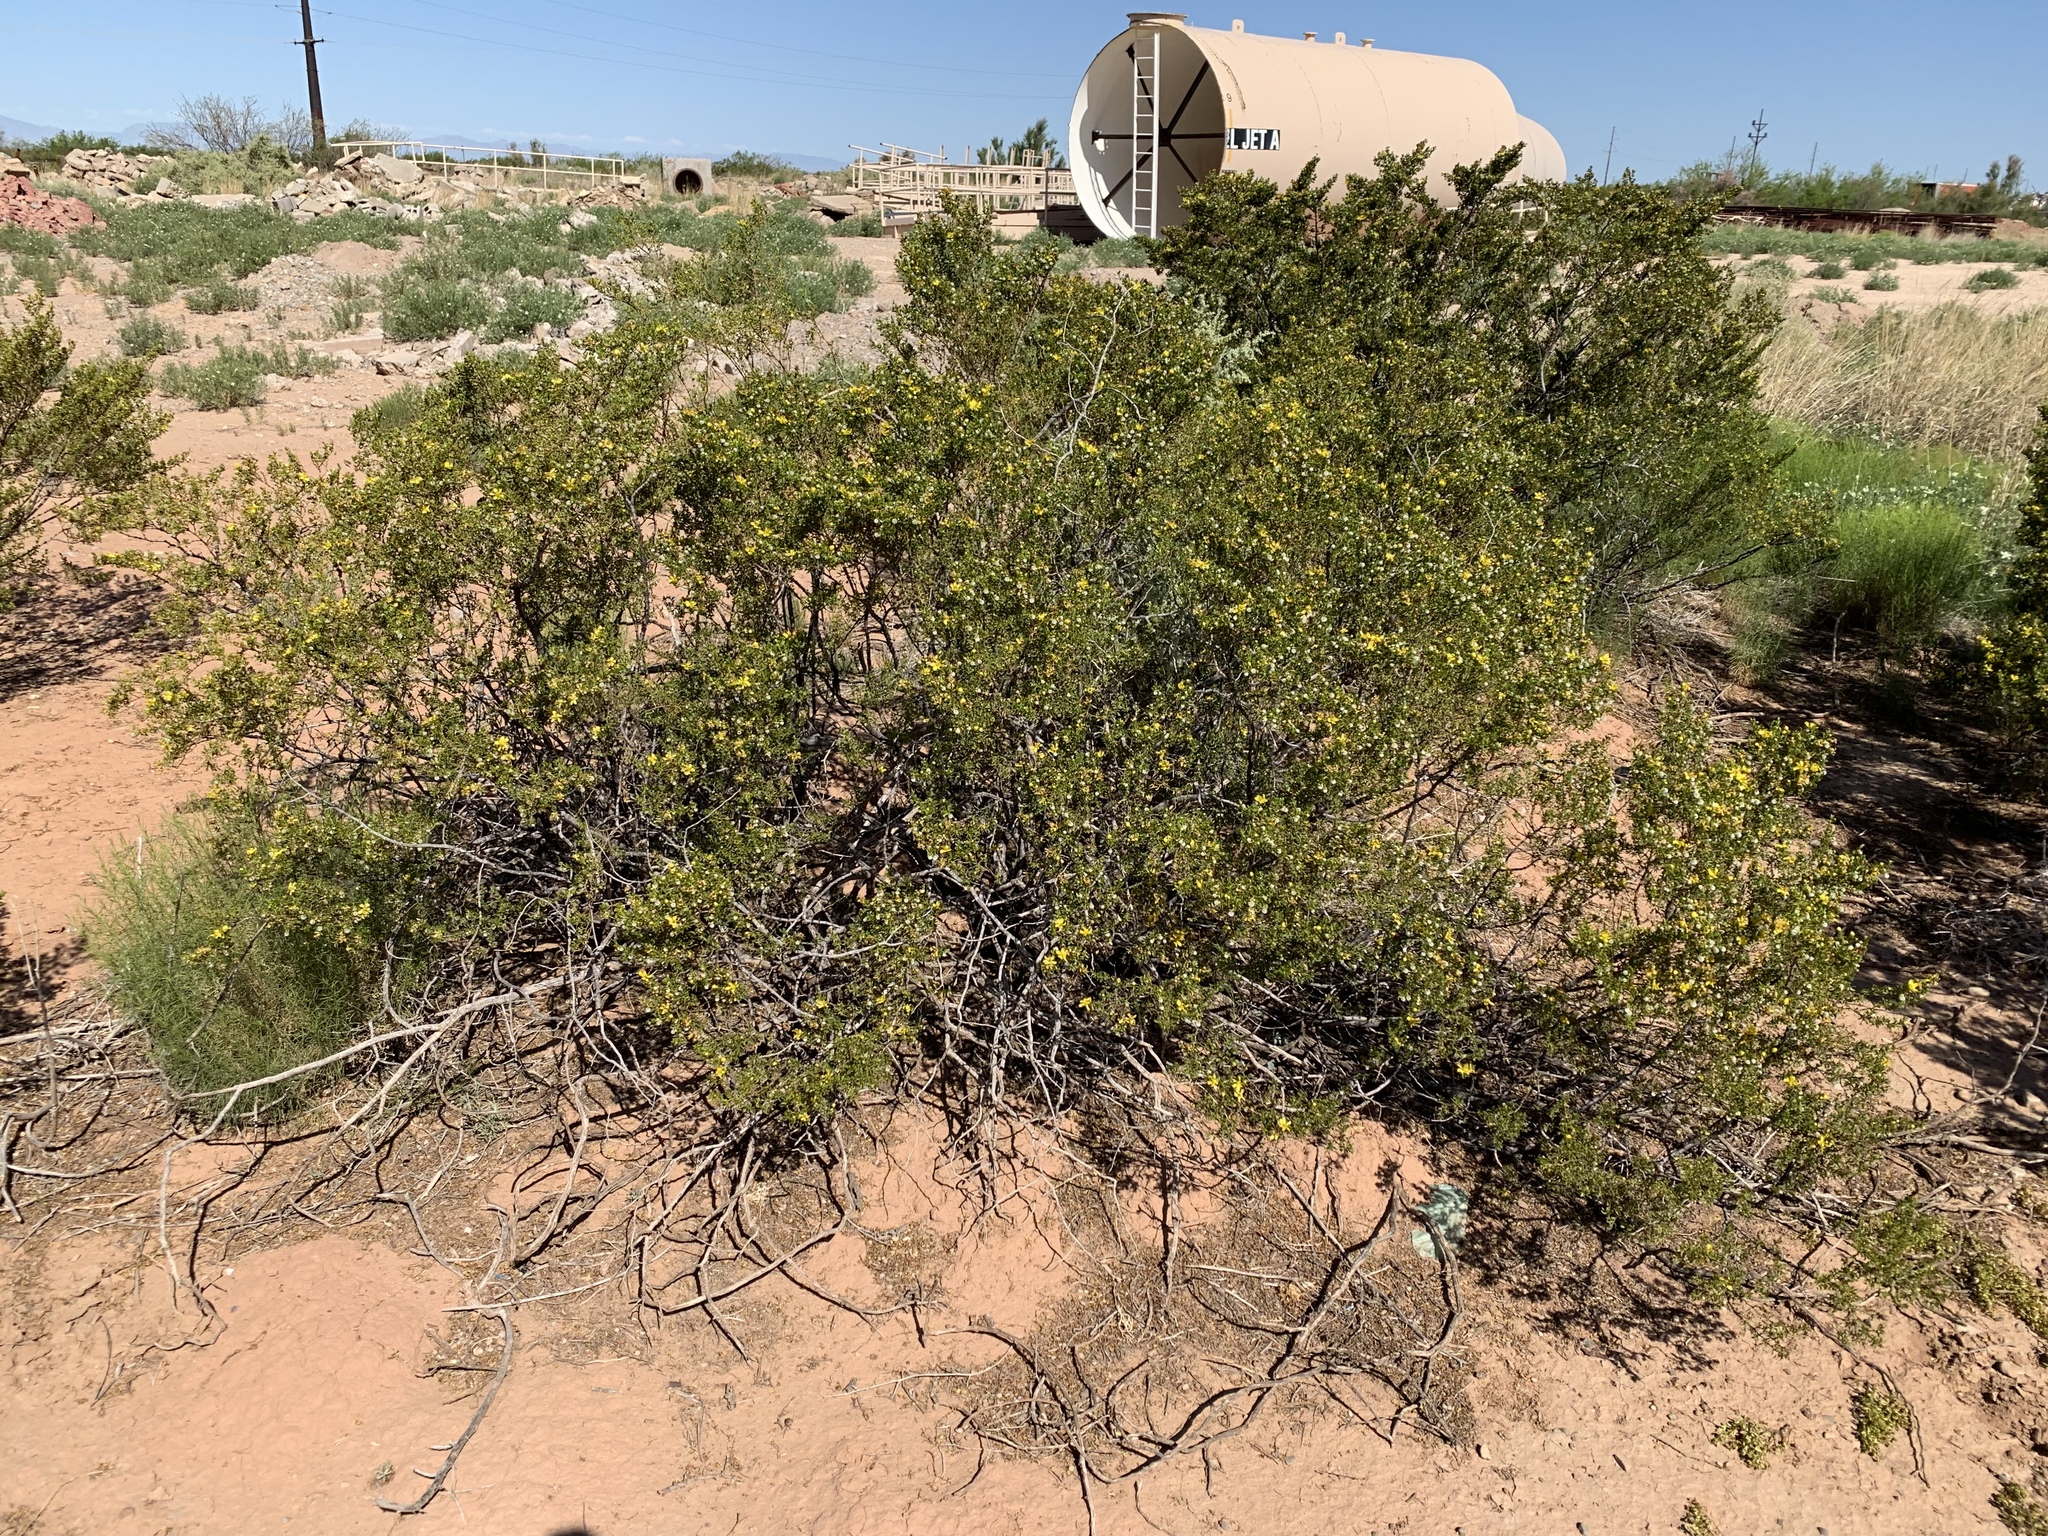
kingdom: Plantae
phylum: Tracheophyta
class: Magnoliopsida
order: Zygophyllales
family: Zygophyllaceae
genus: Larrea
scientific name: Larrea tridentata
